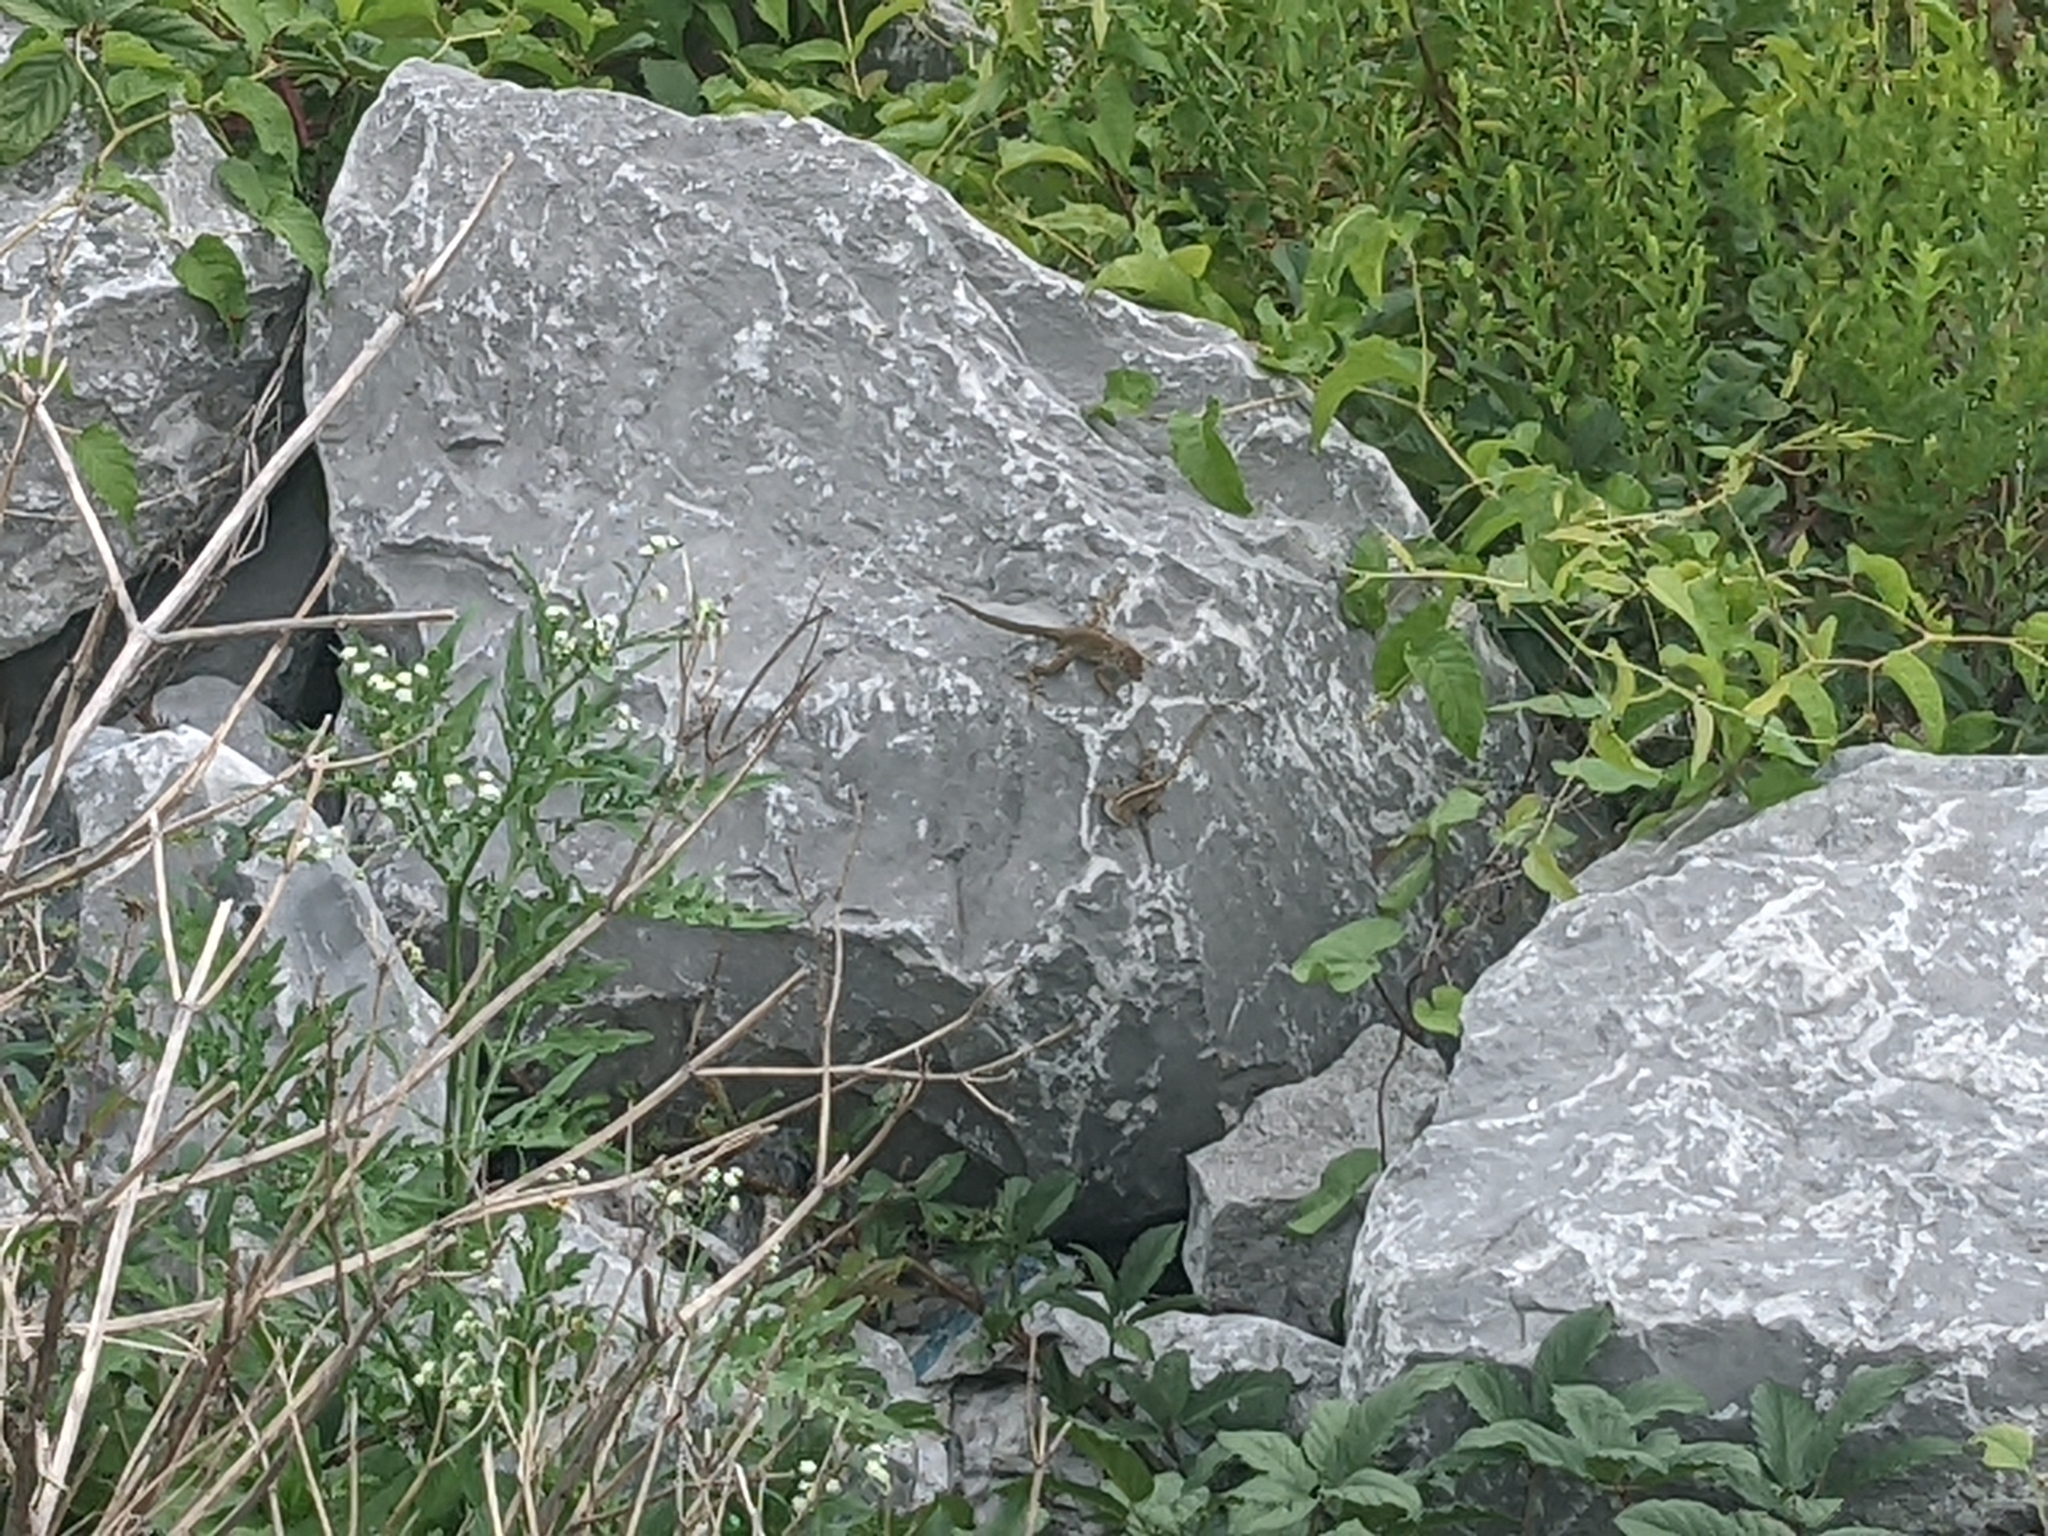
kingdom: Animalia
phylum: Chordata
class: Squamata
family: Dactyloidae
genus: Anolis
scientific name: Anolis sagrei
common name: Brown anole
